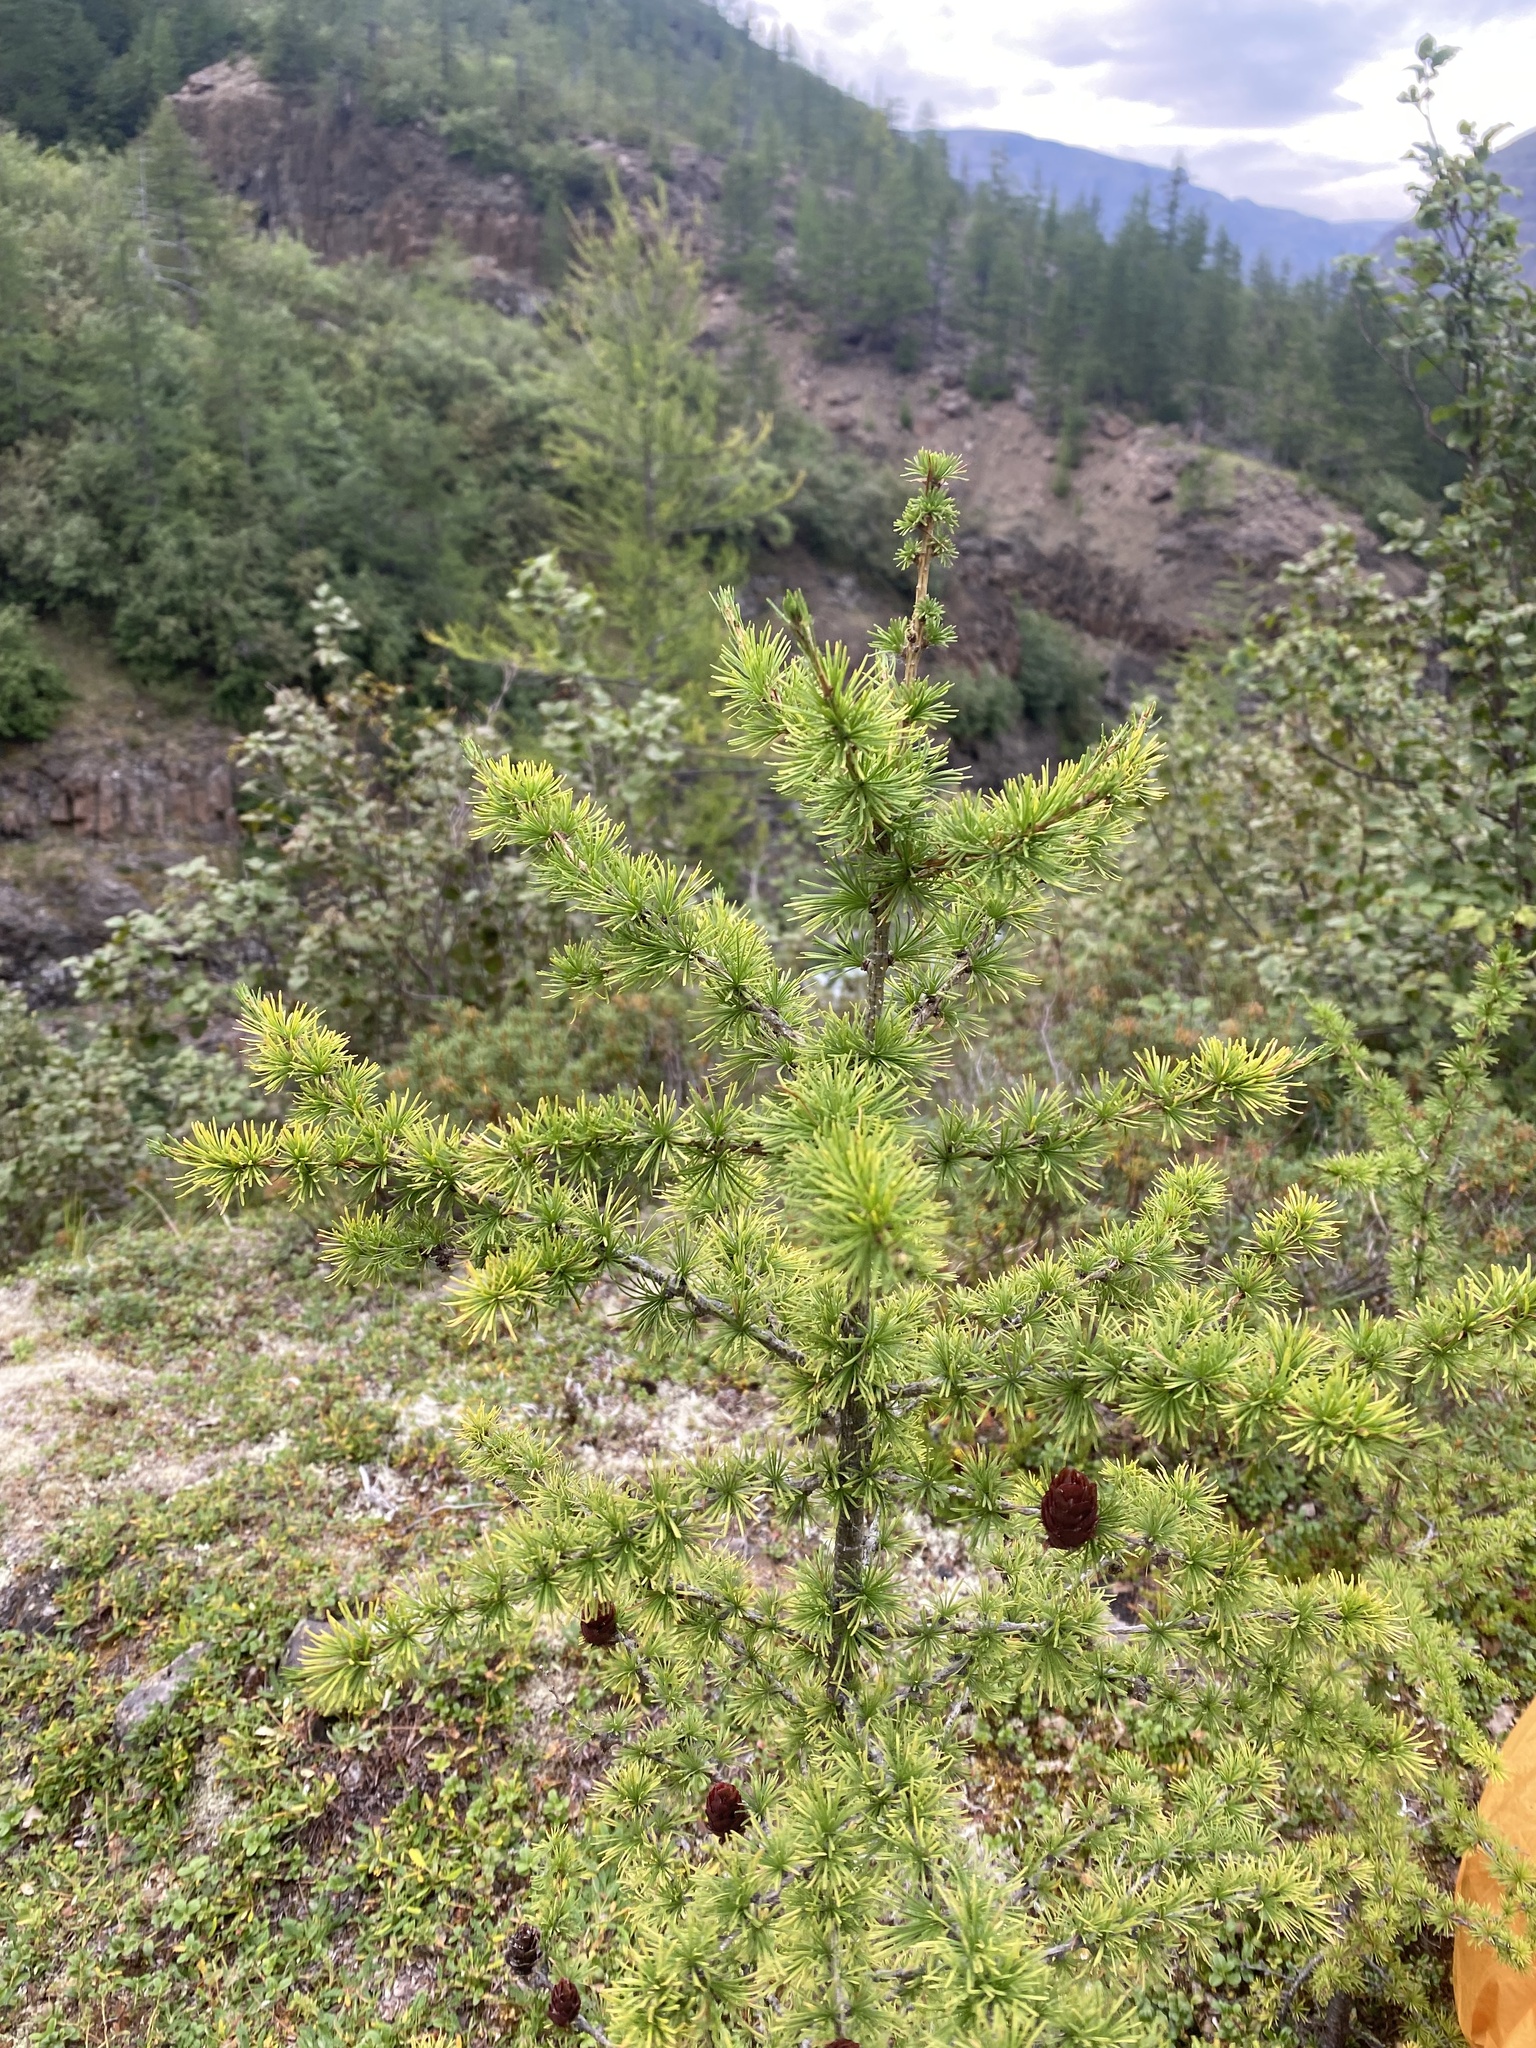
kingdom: Plantae
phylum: Tracheophyta
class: Pinopsida
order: Pinales
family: Pinaceae
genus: Larix
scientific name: Larix czekanowskii
